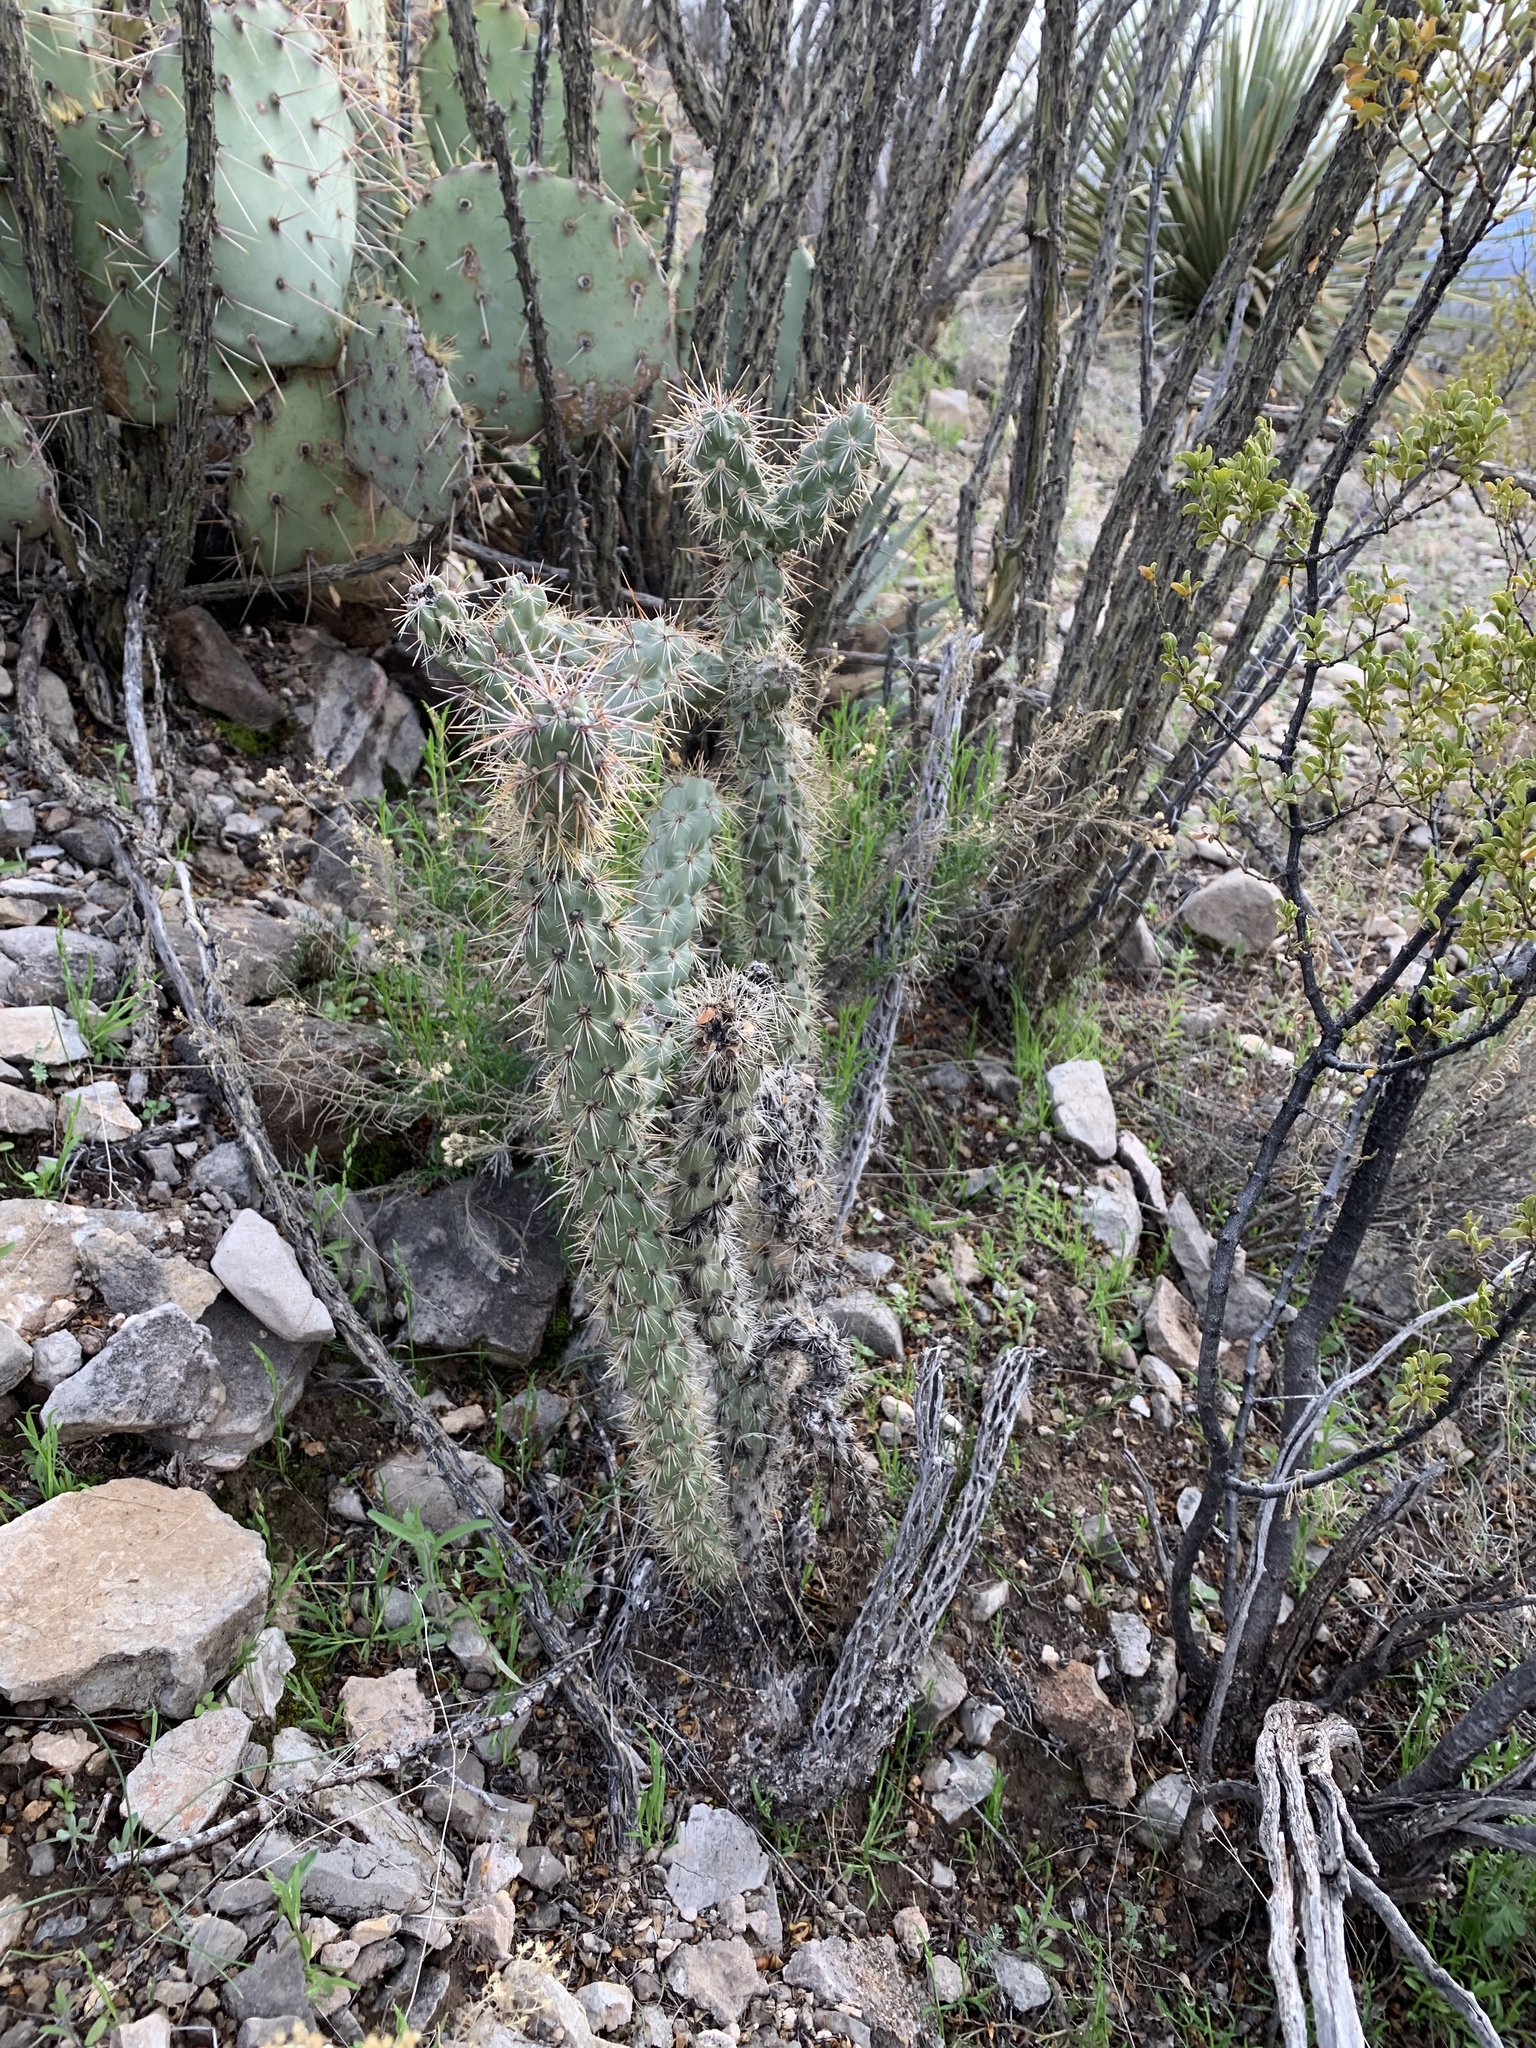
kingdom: Plantae
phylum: Tracheophyta
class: Magnoliopsida
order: Caryophyllales
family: Cactaceae
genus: Cylindropuntia
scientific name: Cylindropuntia imbricata
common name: Candelabrum cactus
